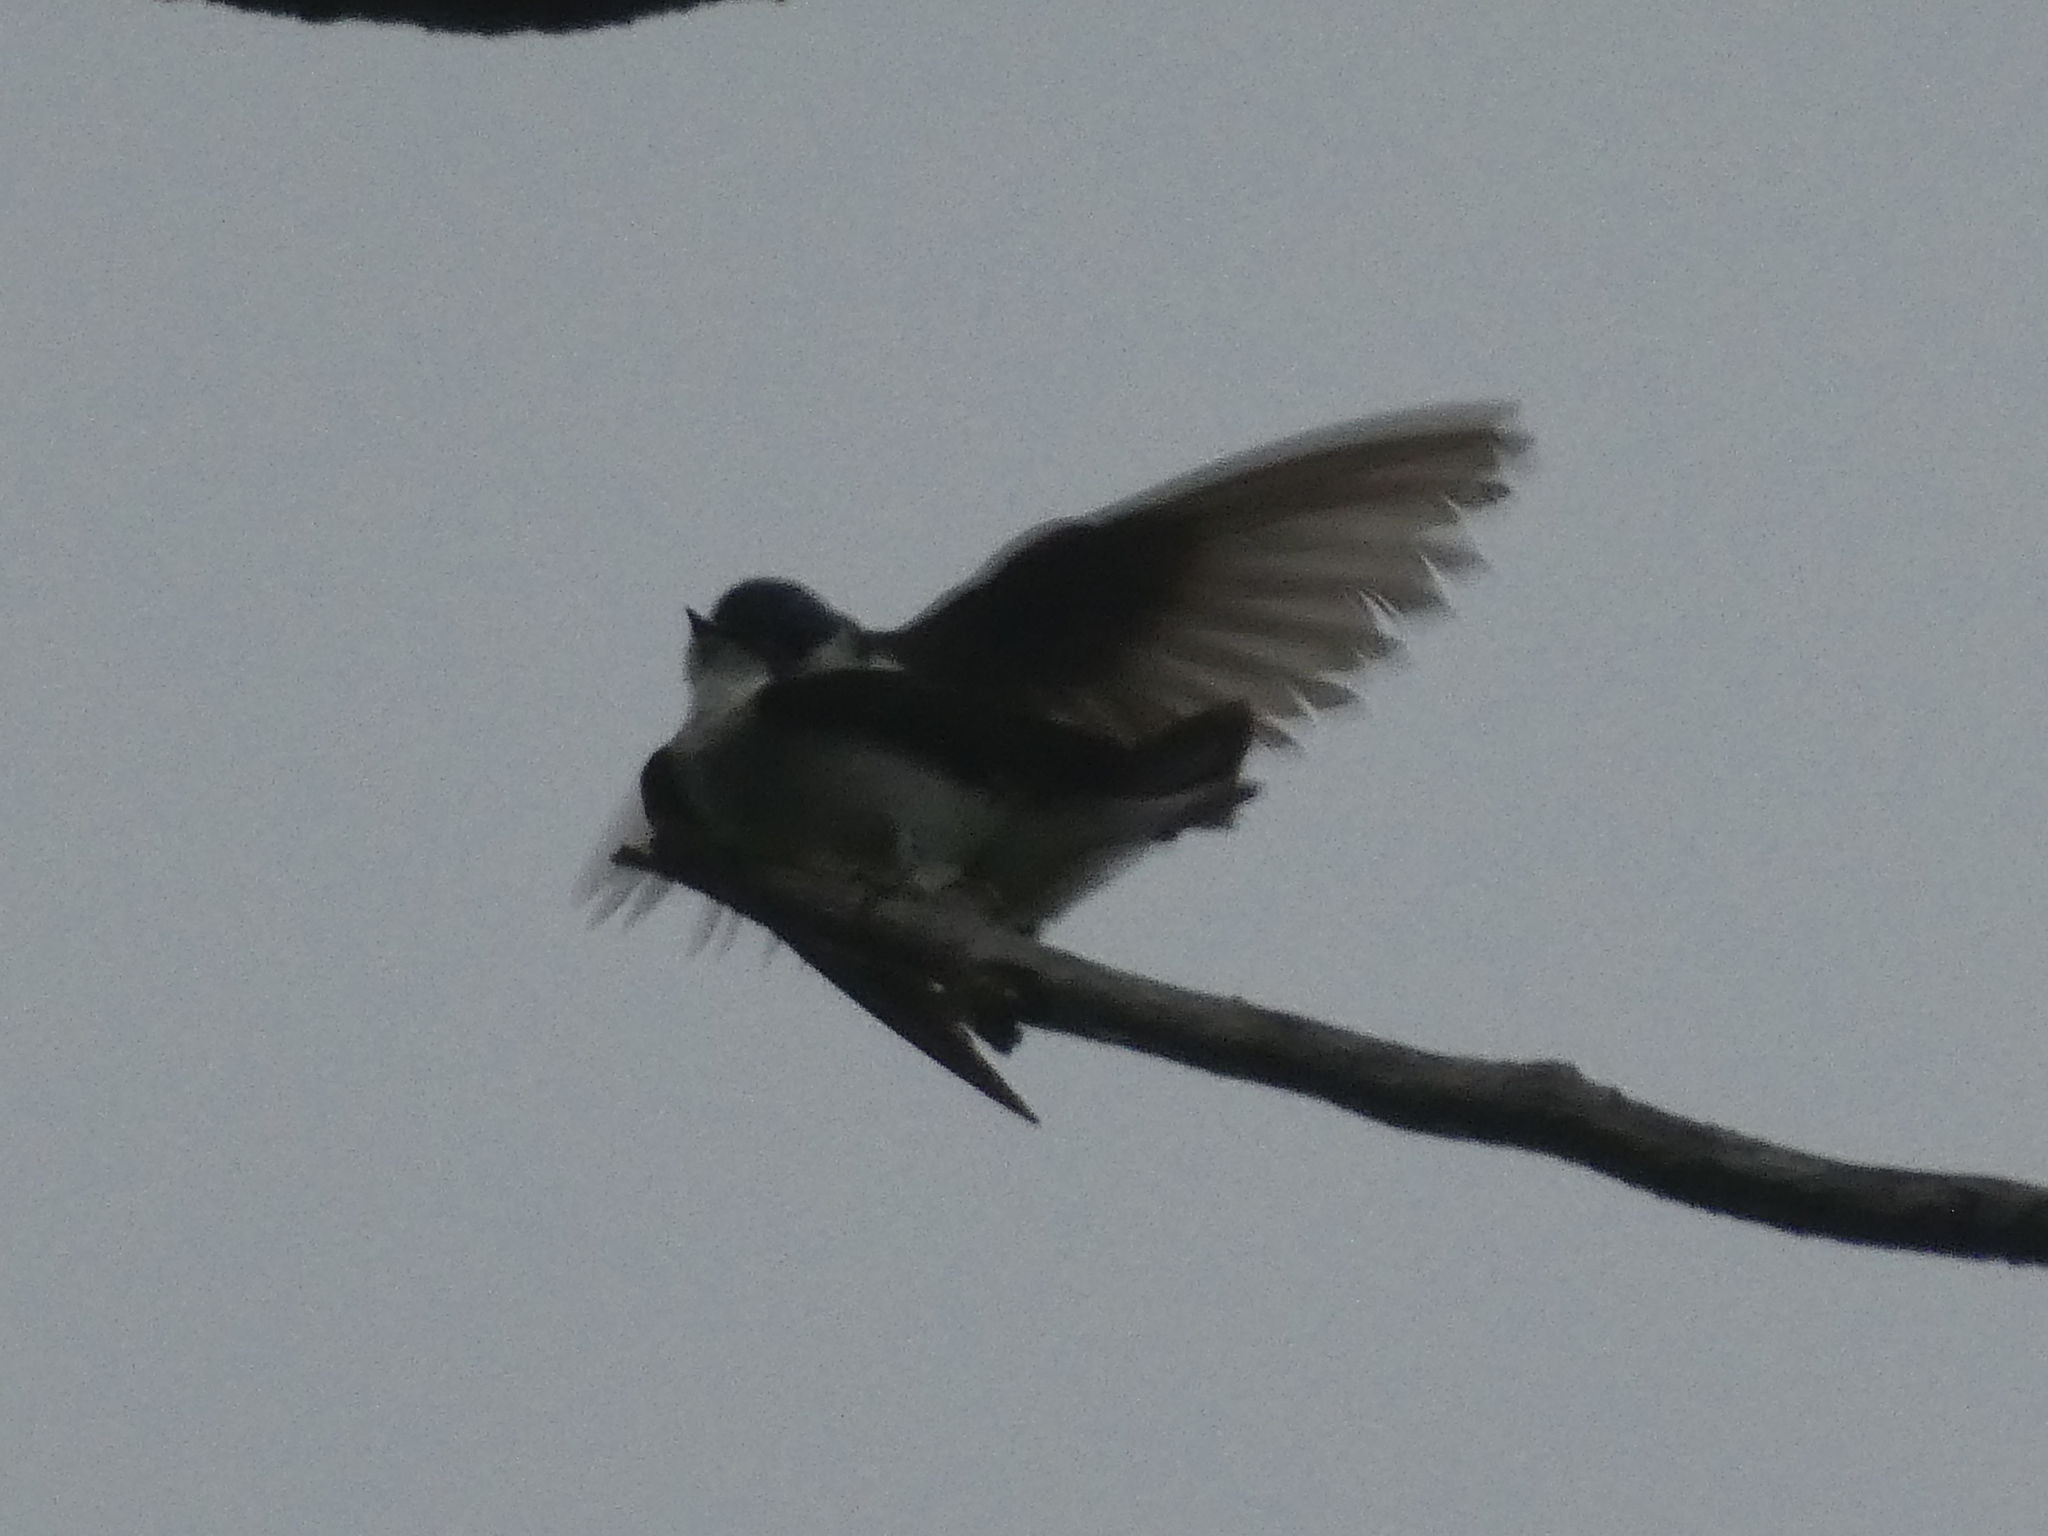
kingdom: Animalia
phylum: Chordata
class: Aves
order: Passeriformes
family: Hirundinidae
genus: Tachycineta
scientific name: Tachycineta bicolor
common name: Tree swallow
